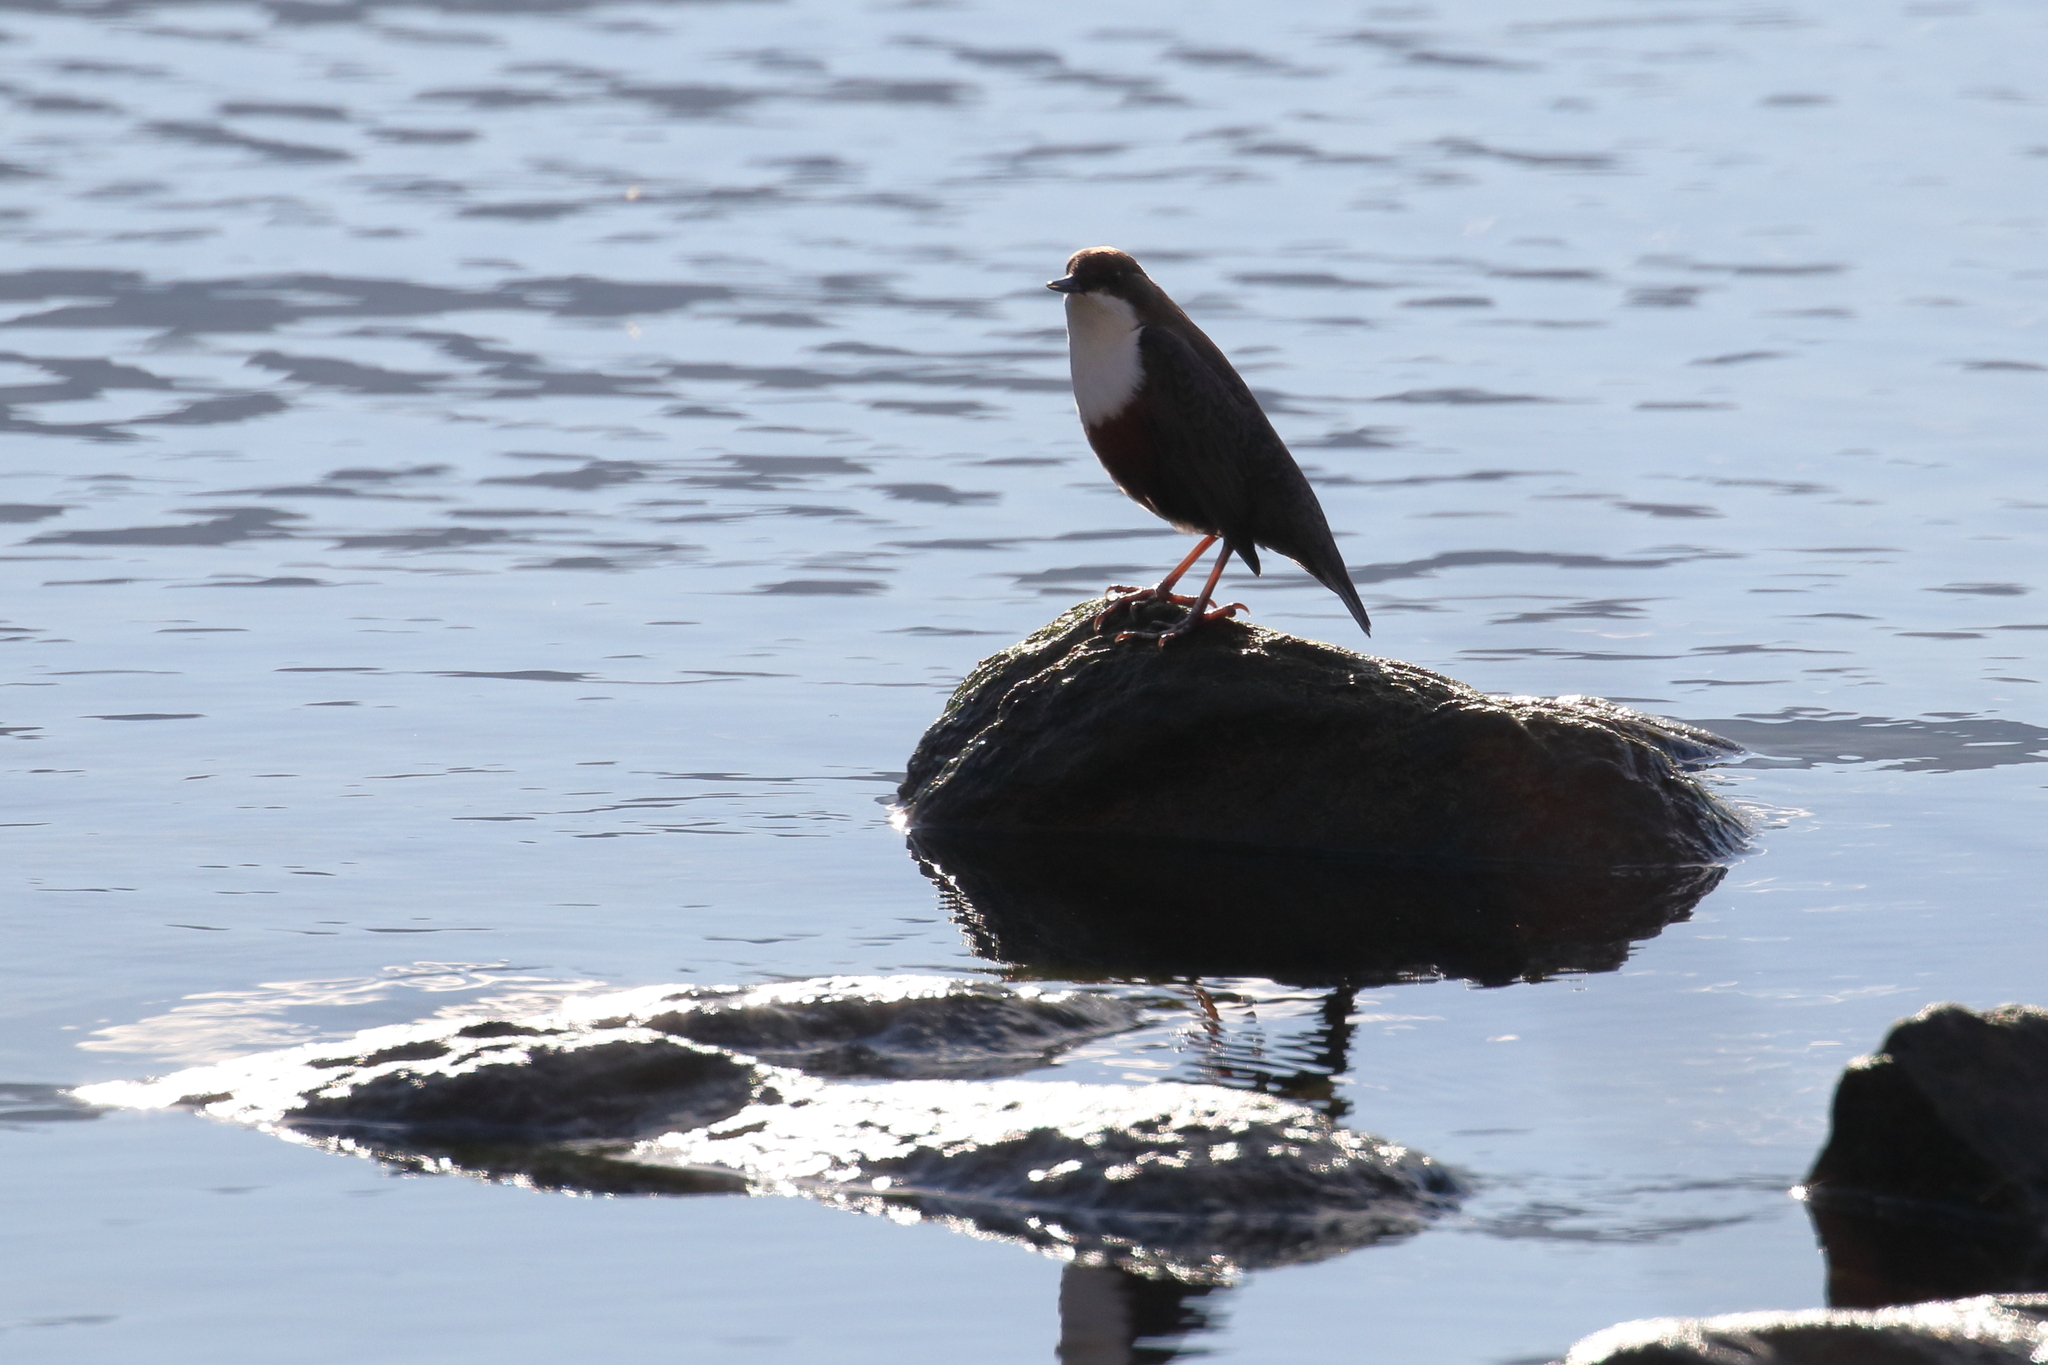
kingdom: Animalia
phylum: Chordata
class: Aves
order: Passeriformes
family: Cinclidae
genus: Cinclus
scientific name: Cinclus cinclus
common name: White-throated dipper
